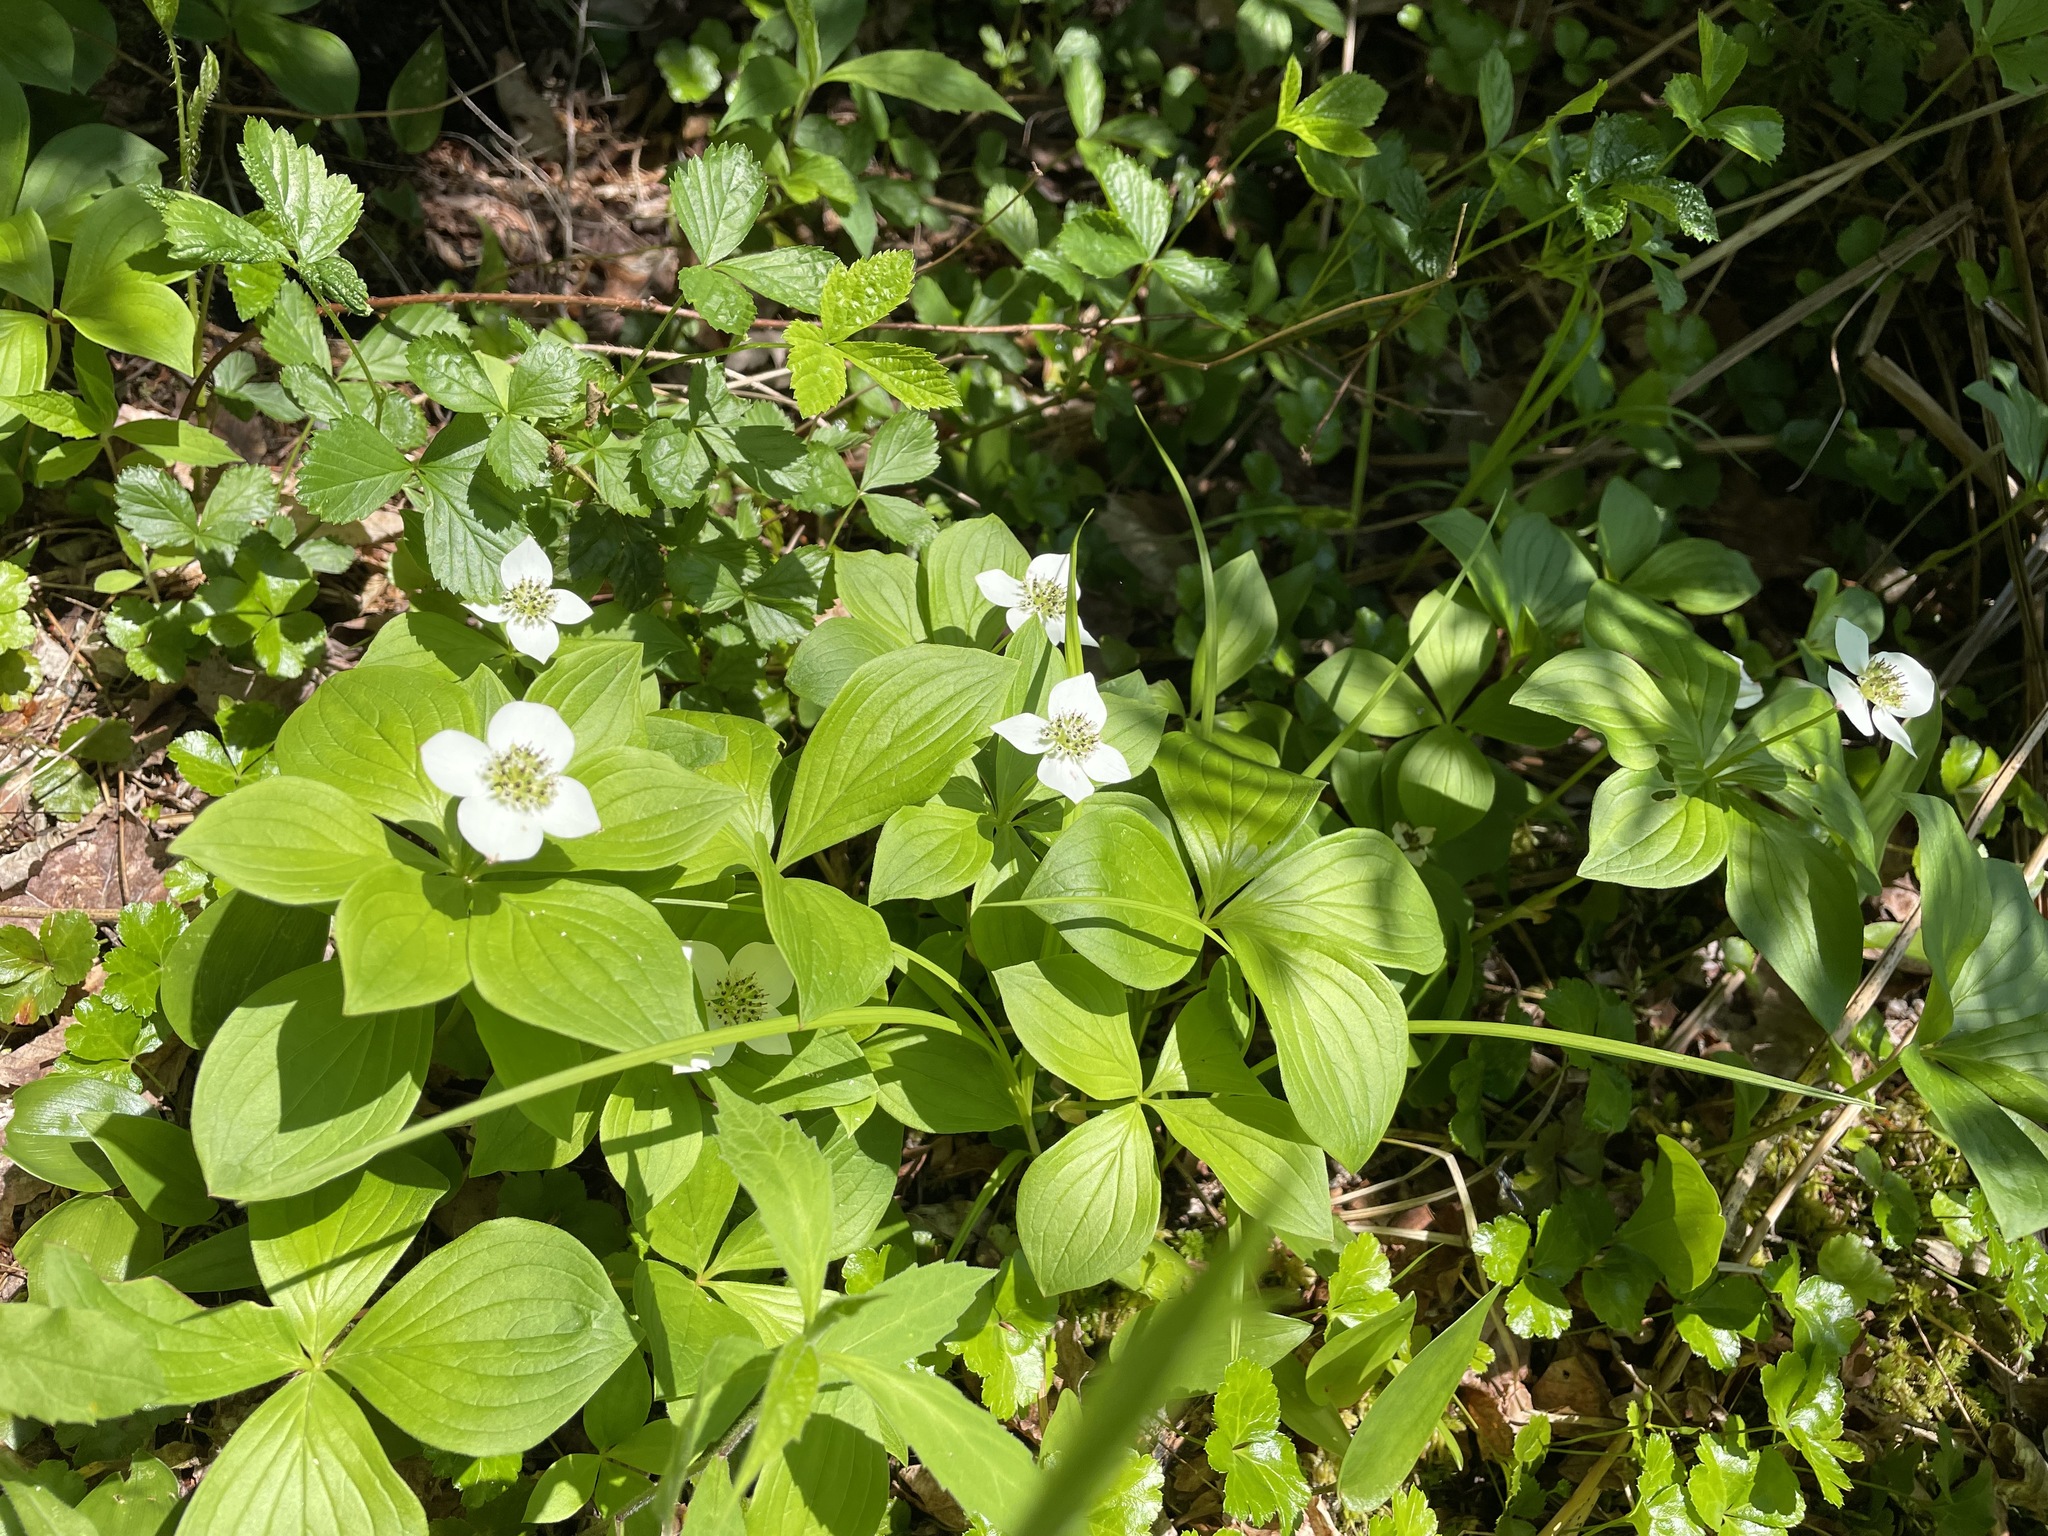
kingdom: Plantae
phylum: Tracheophyta
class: Magnoliopsida
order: Cornales
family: Cornaceae
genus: Cornus
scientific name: Cornus canadensis
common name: Creeping dogwood
